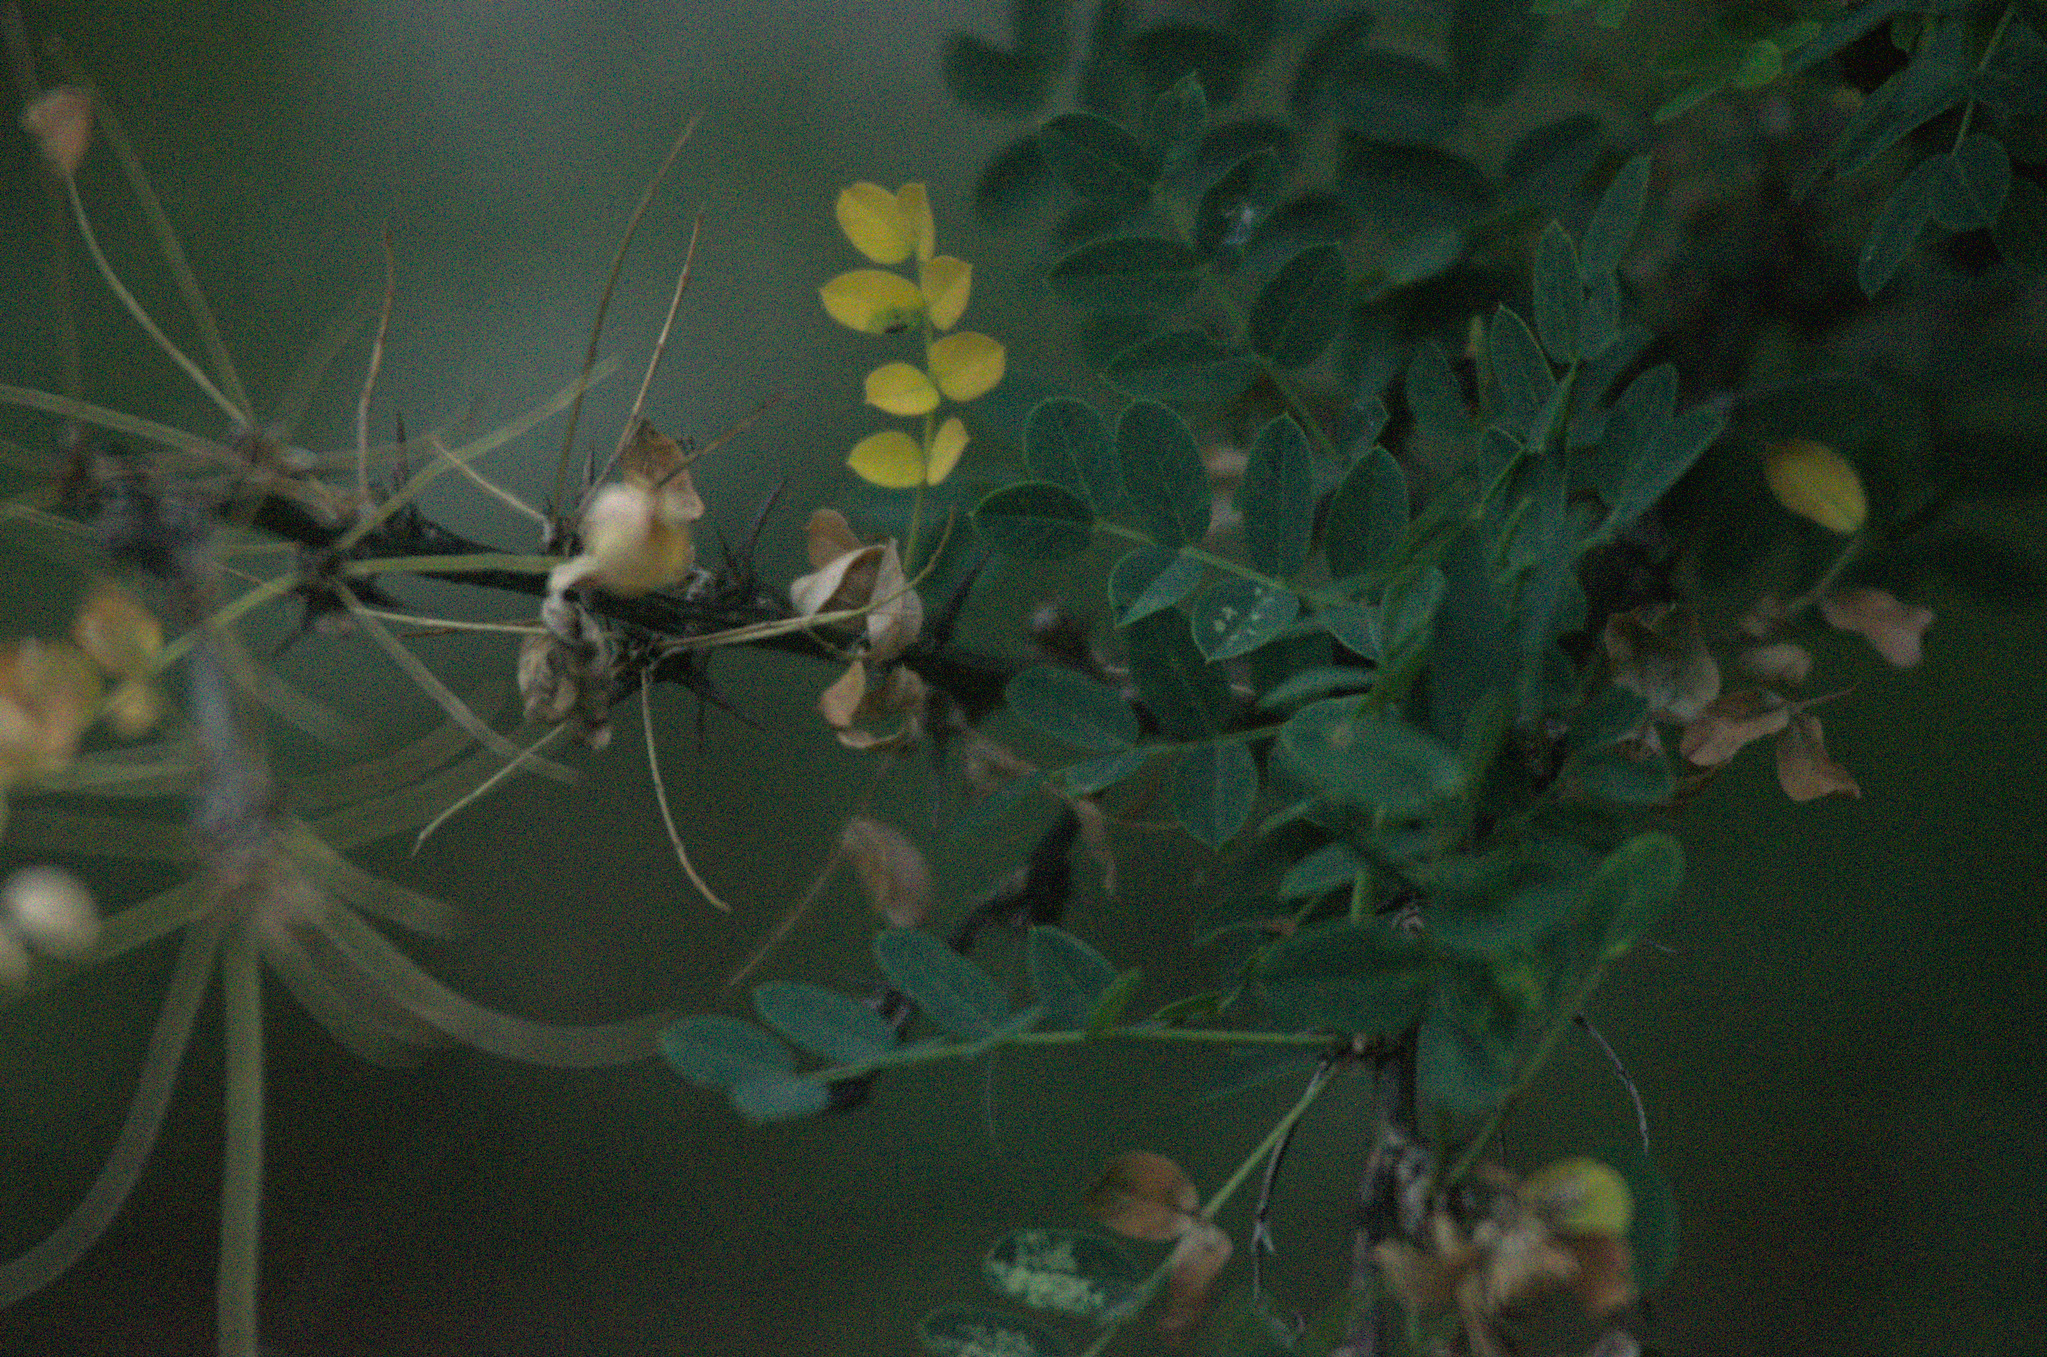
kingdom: Plantae
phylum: Tracheophyta
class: Magnoliopsida
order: Fabales
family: Fabaceae
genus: Caragana
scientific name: Caragana arborescens
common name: Siberian peashrub
